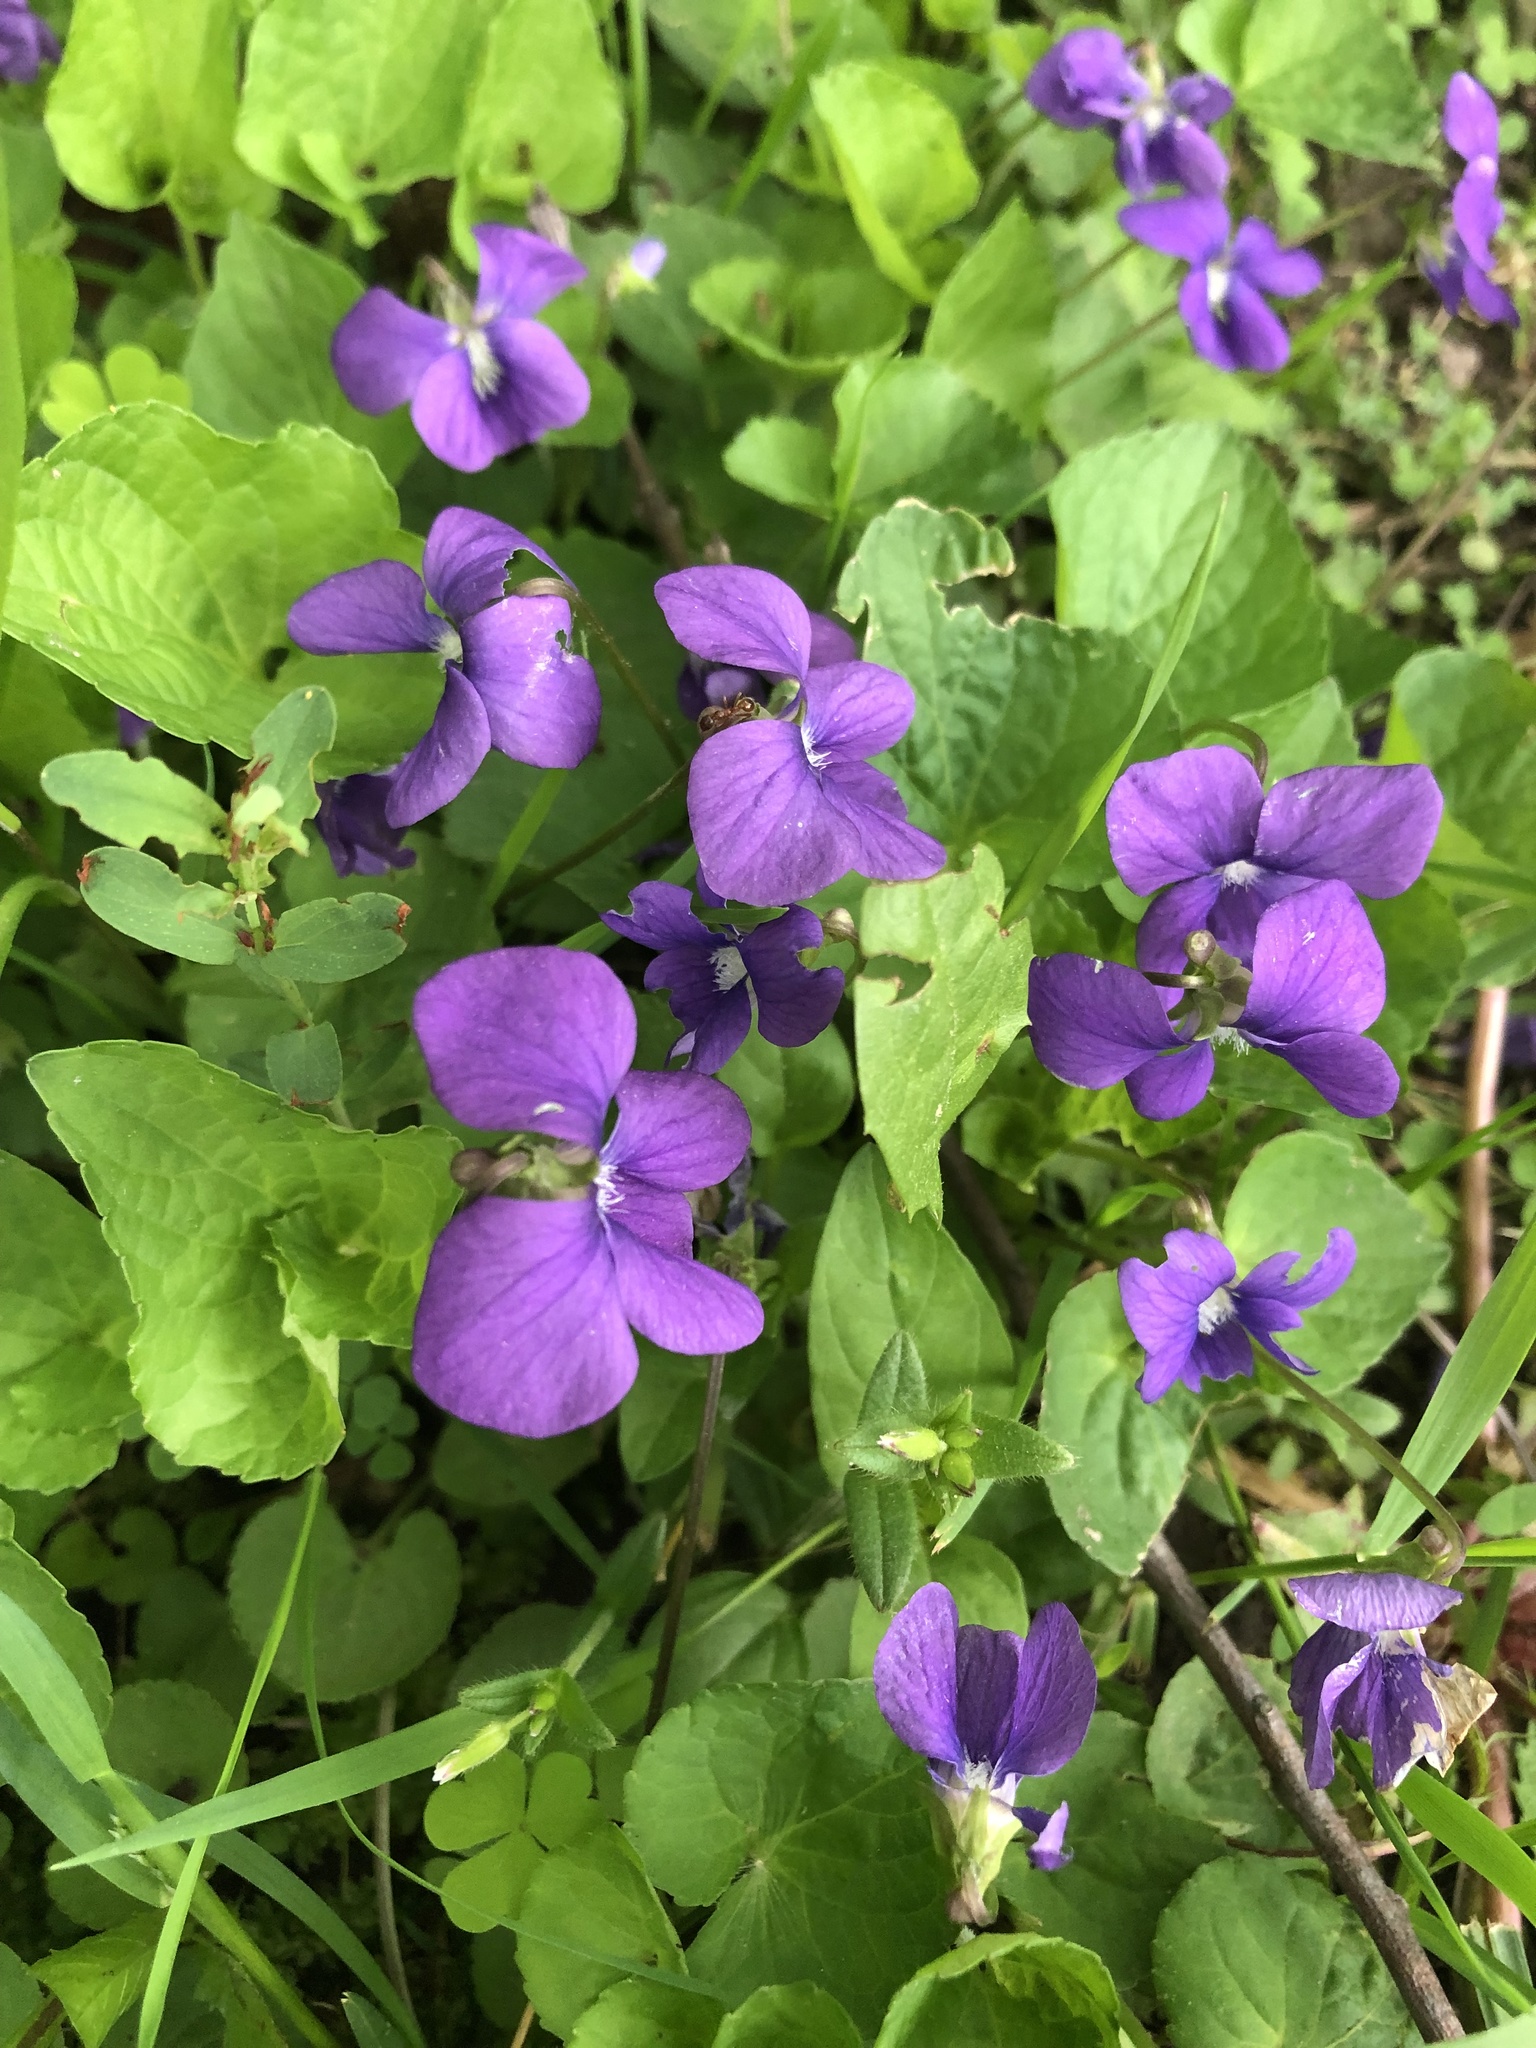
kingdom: Plantae
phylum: Tracheophyta
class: Magnoliopsida
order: Malpighiales
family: Violaceae
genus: Viola
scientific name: Viola sororia
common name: Dooryard violet
